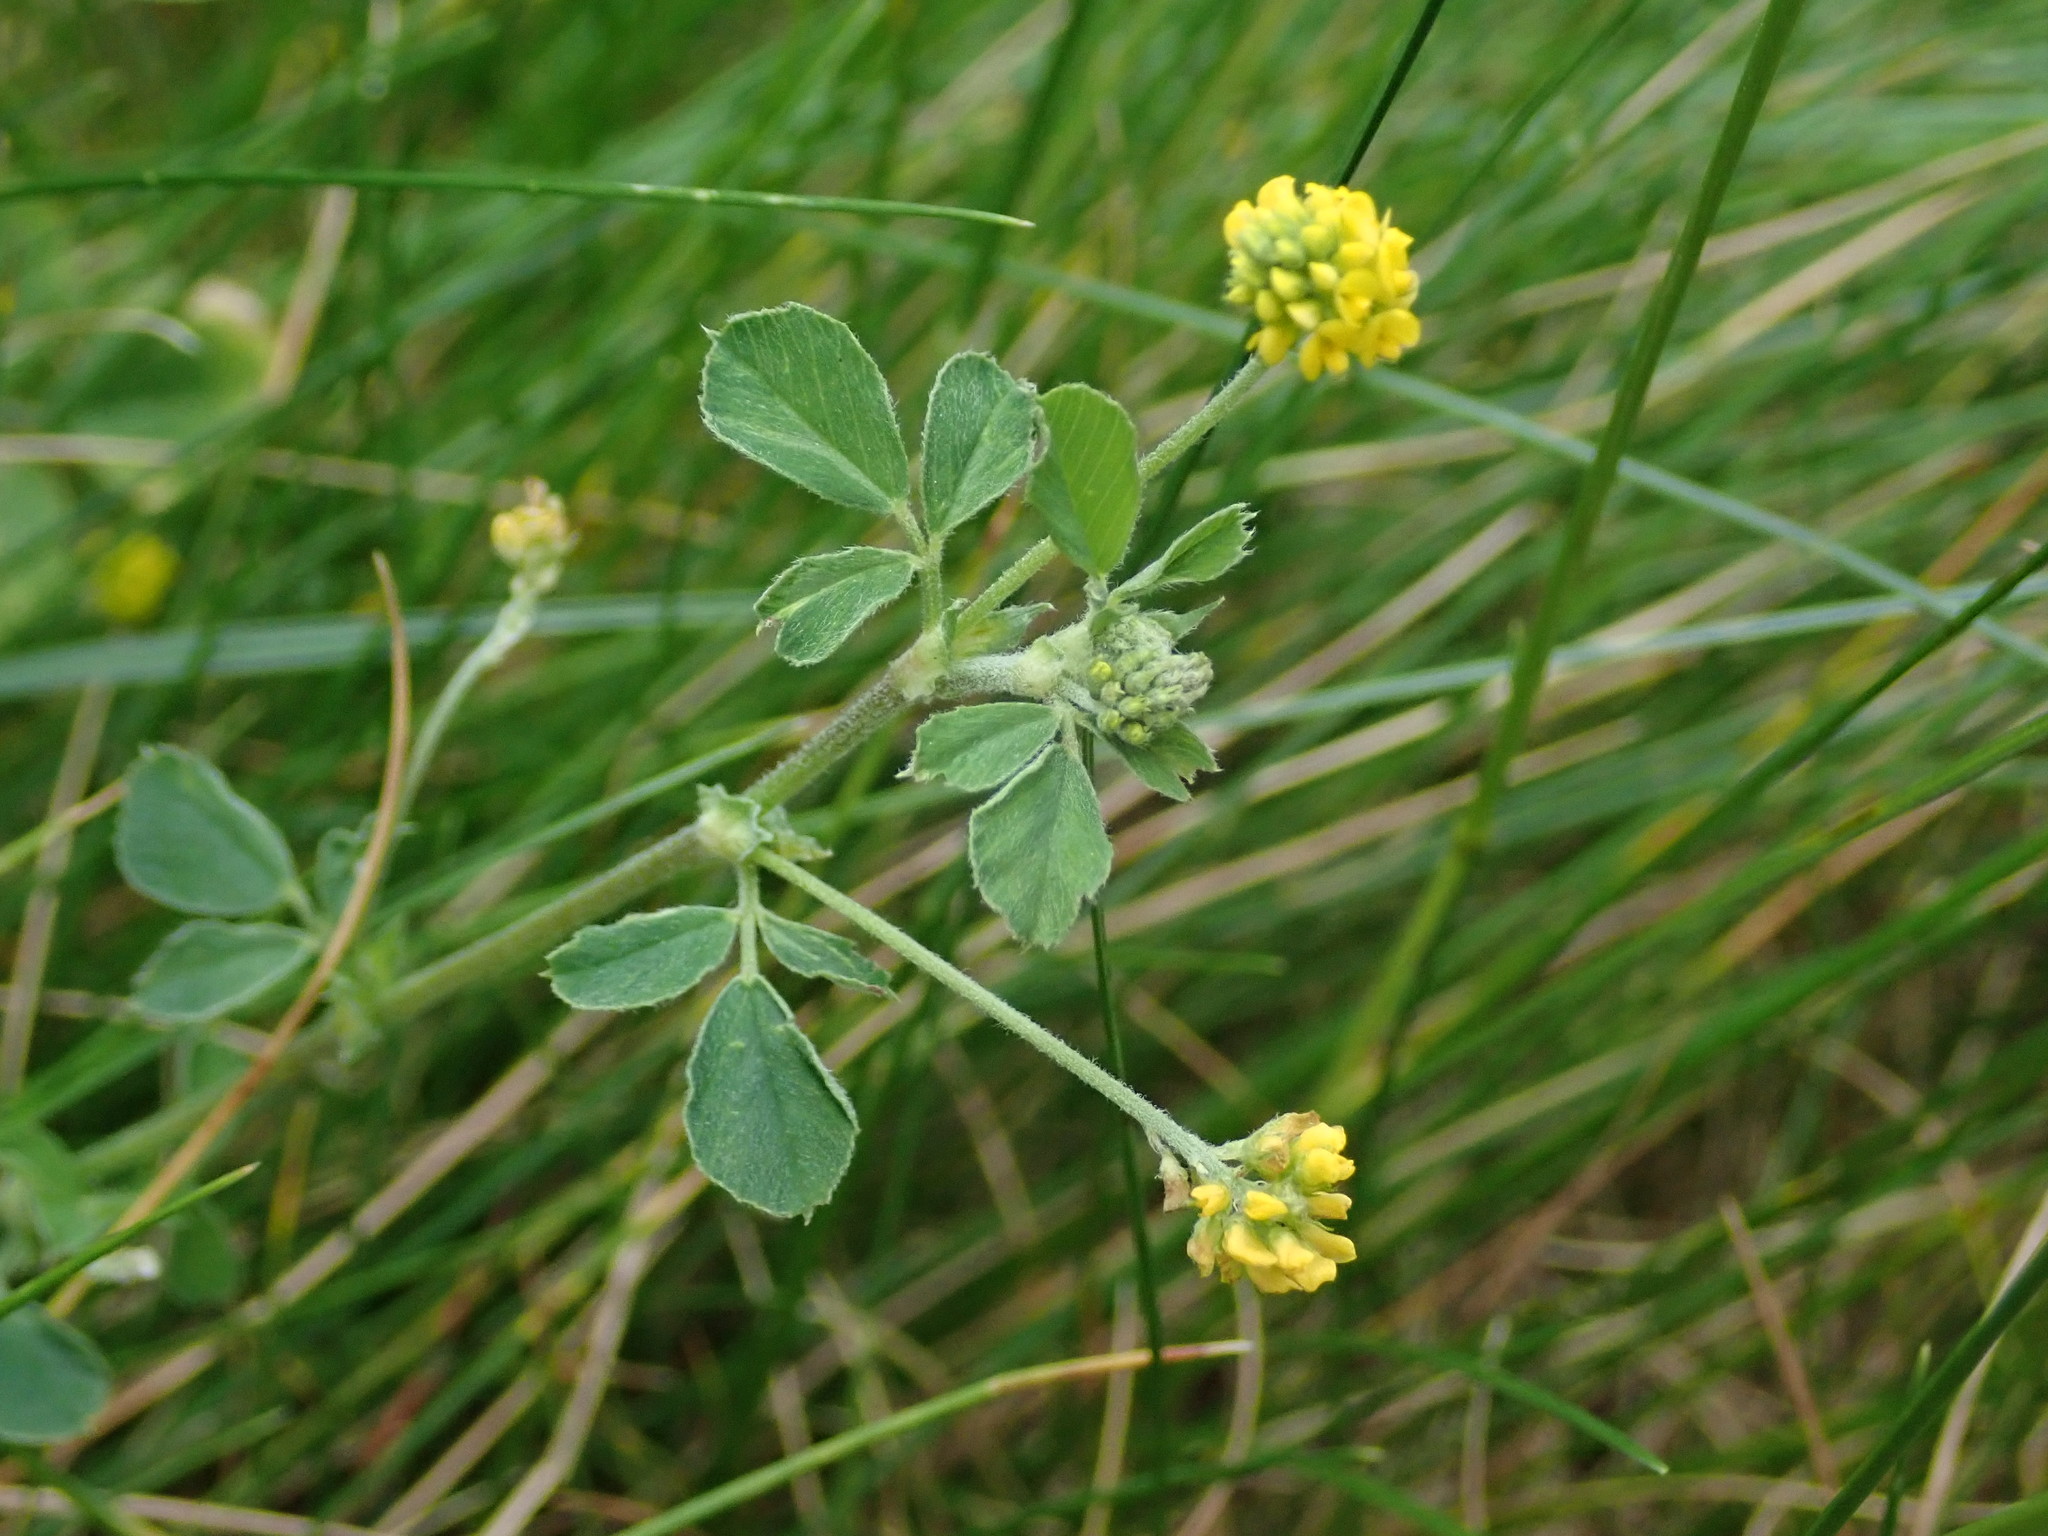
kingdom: Plantae
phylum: Tracheophyta
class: Magnoliopsida
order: Fabales
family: Fabaceae
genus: Medicago
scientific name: Medicago lupulina
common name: Black medick
